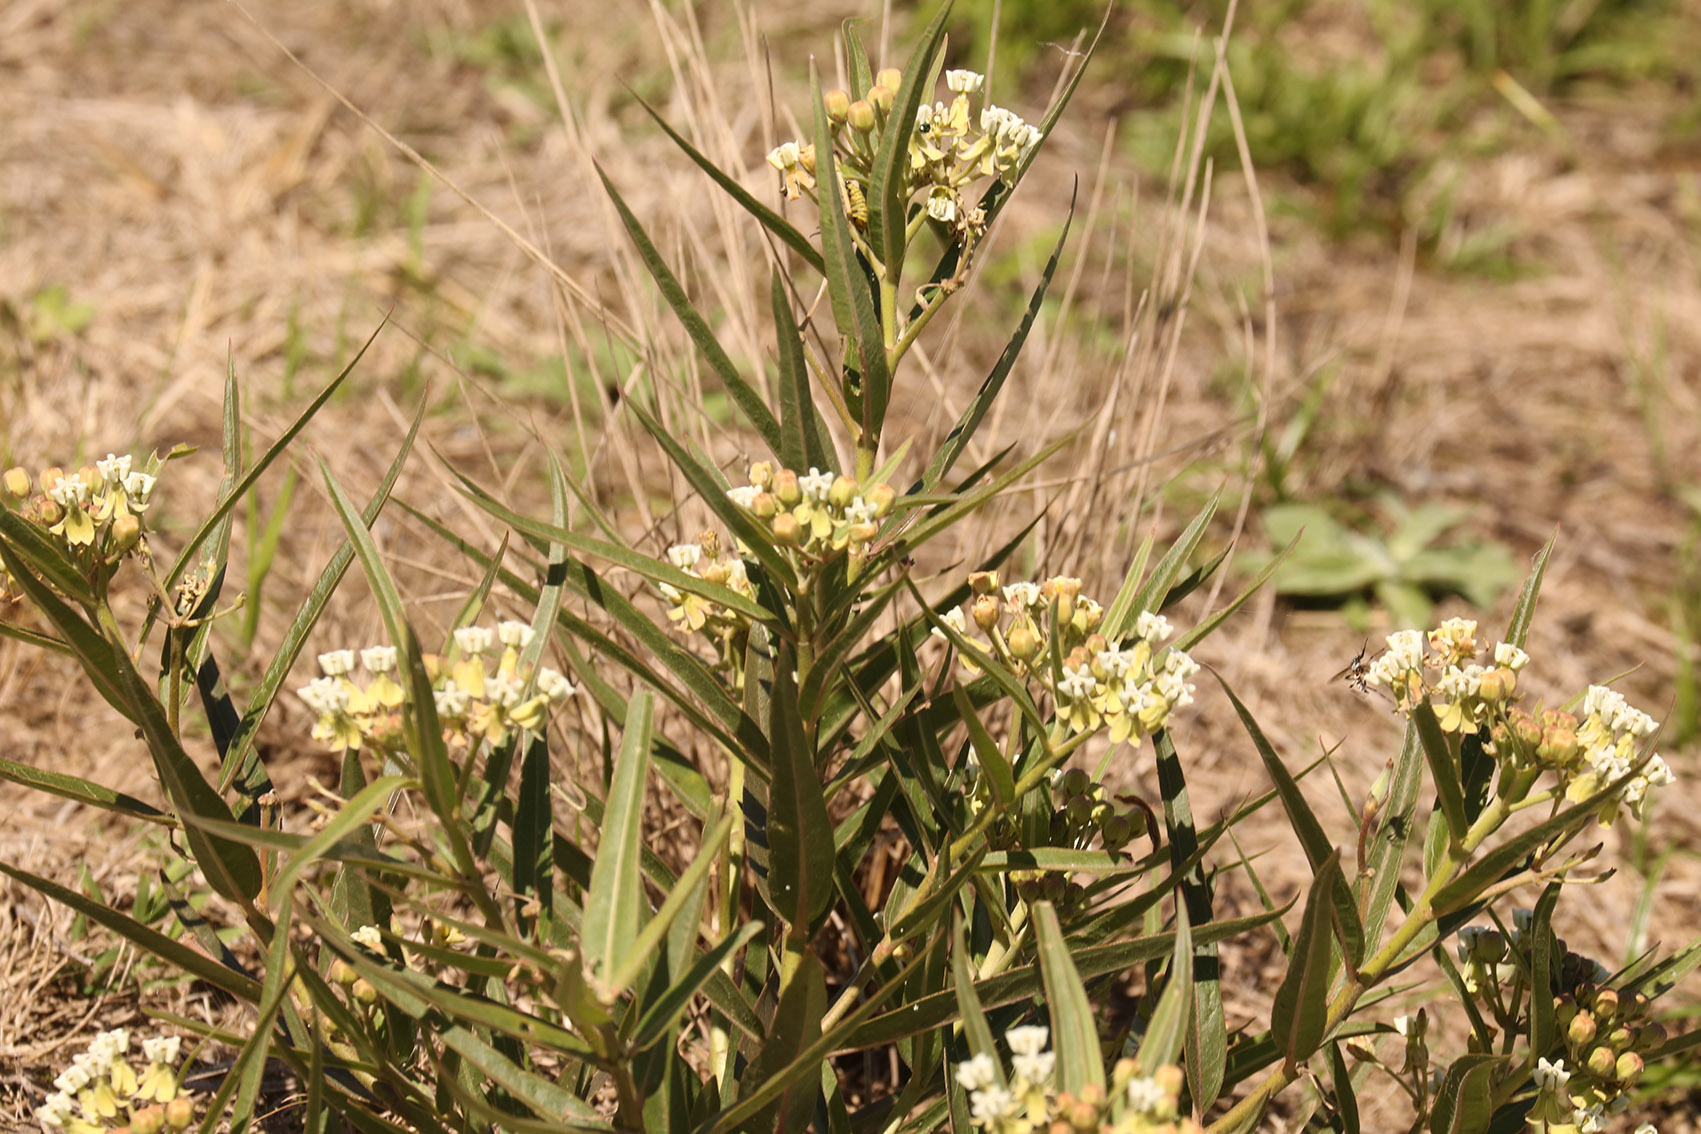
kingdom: Plantae
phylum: Tracheophyta
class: Magnoliopsida
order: Gentianales
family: Apocynaceae
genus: Asclepias
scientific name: Asclepias mellodora
